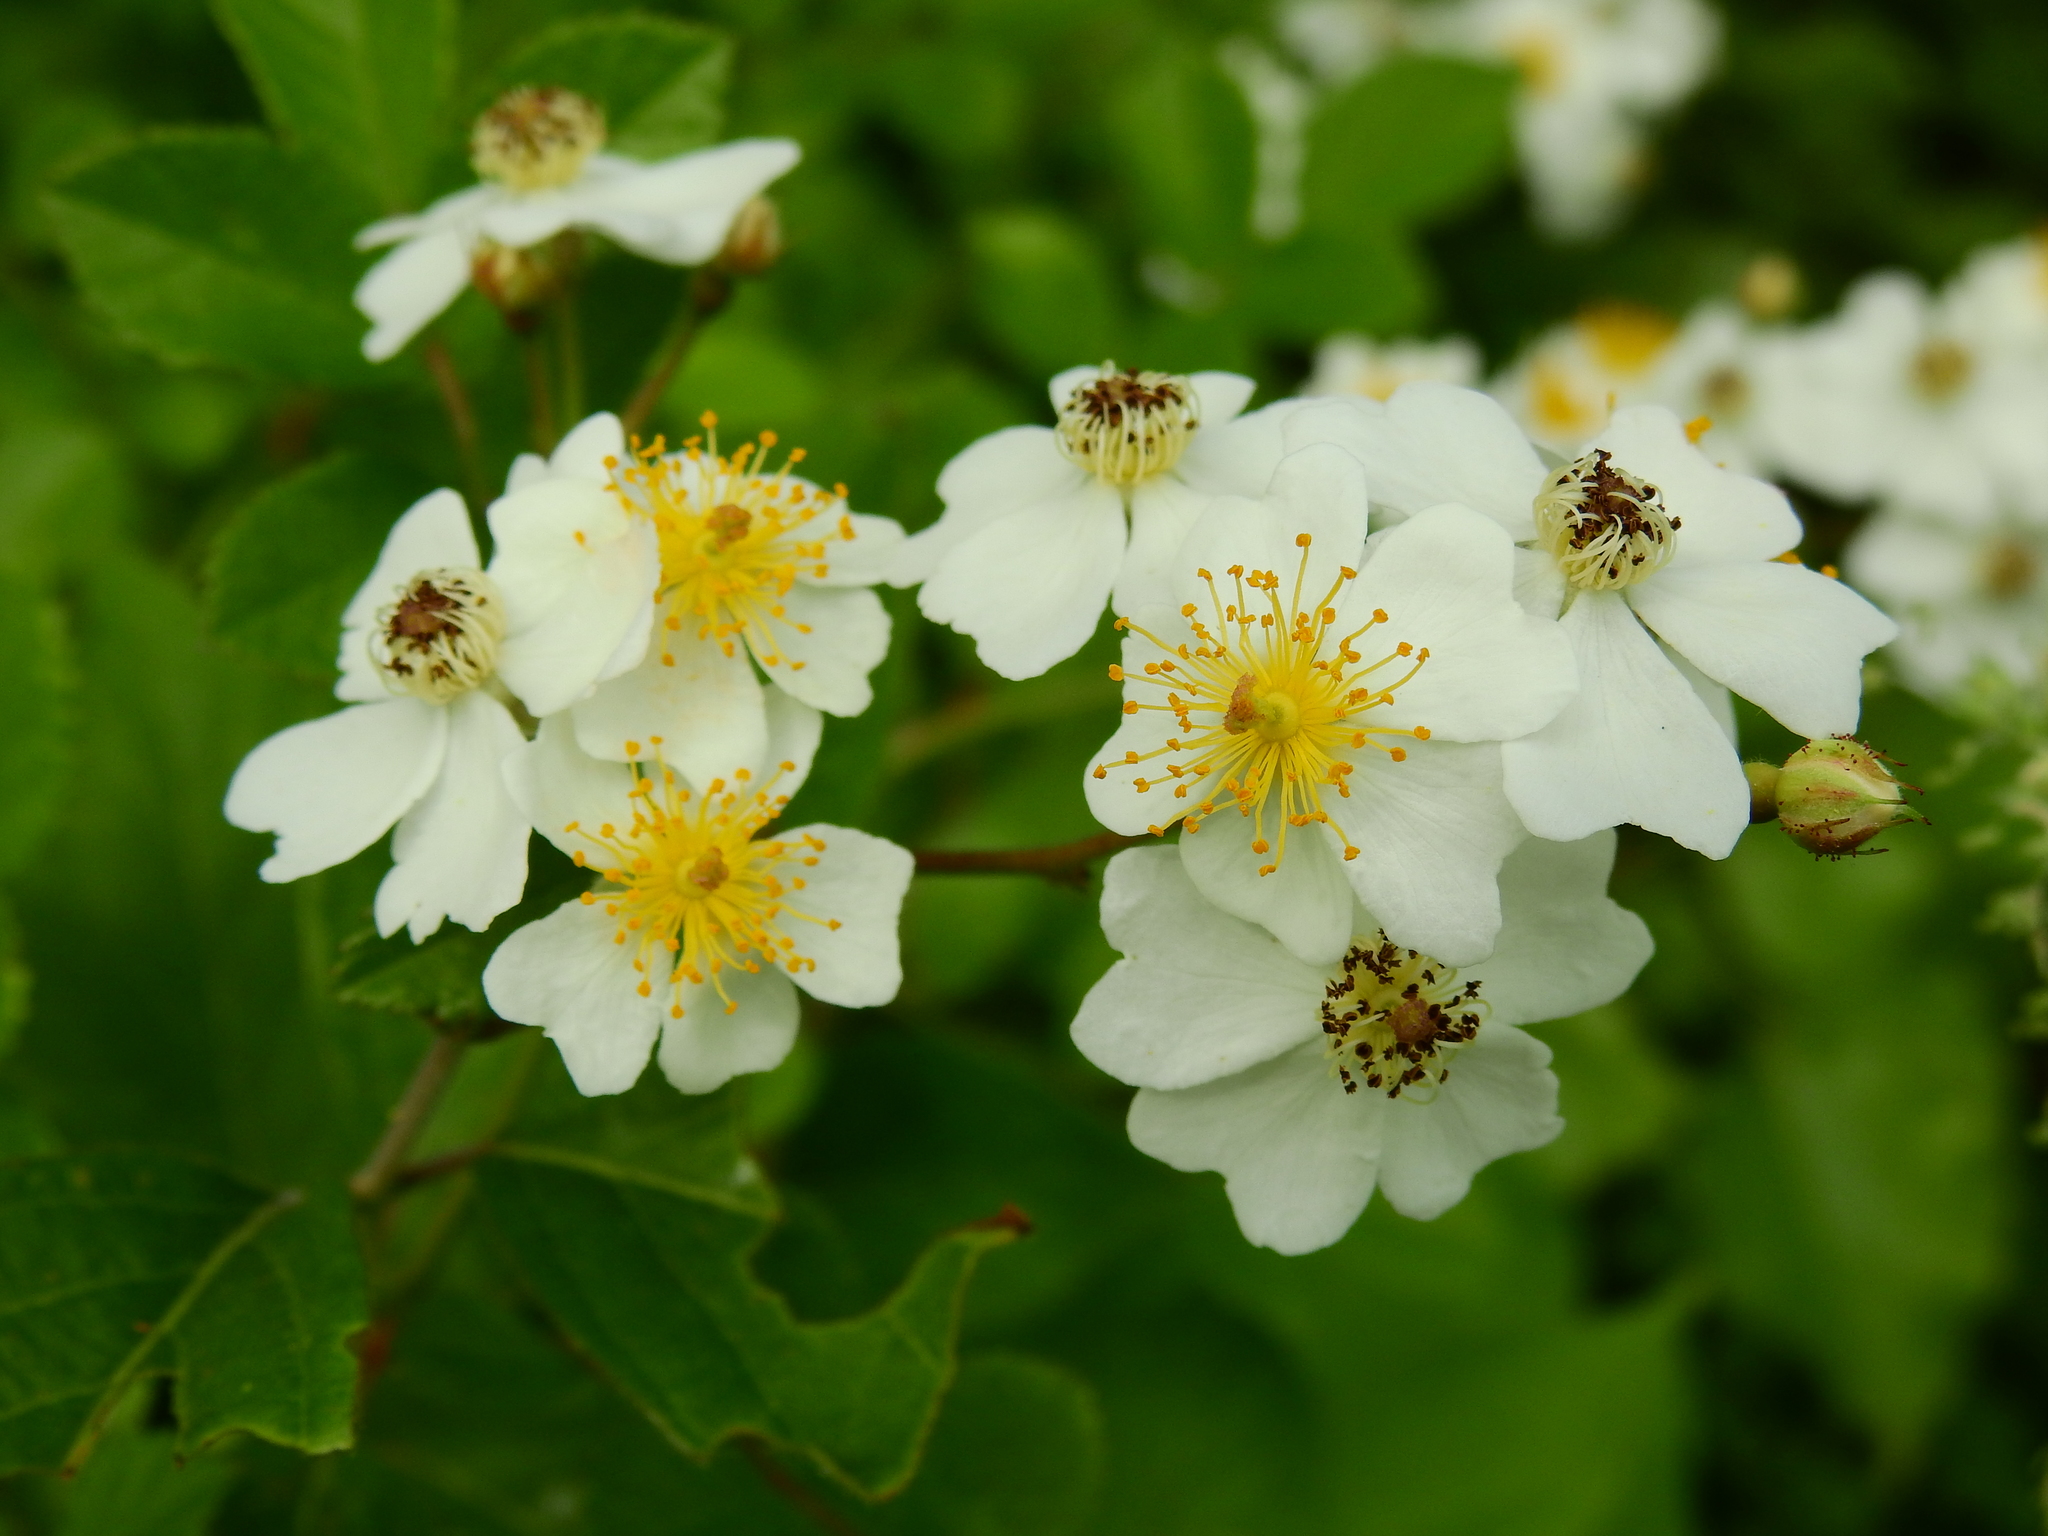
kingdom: Plantae
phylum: Tracheophyta
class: Magnoliopsida
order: Rosales
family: Rosaceae
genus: Rosa
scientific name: Rosa multiflora
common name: Multiflora rose
